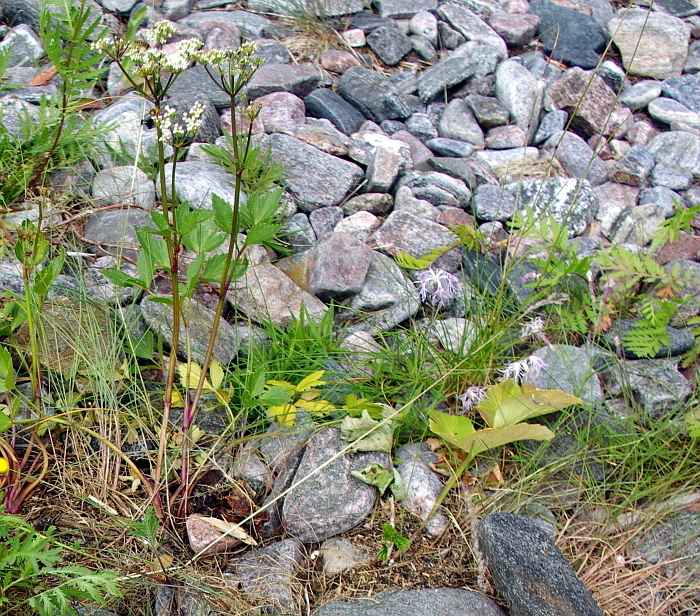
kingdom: Plantae
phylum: Tracheophyta
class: Magnoliopsida
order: Apiales
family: Apiaceae
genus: Ligusticum
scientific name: Ligusticum scothicum
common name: Beach lovage
